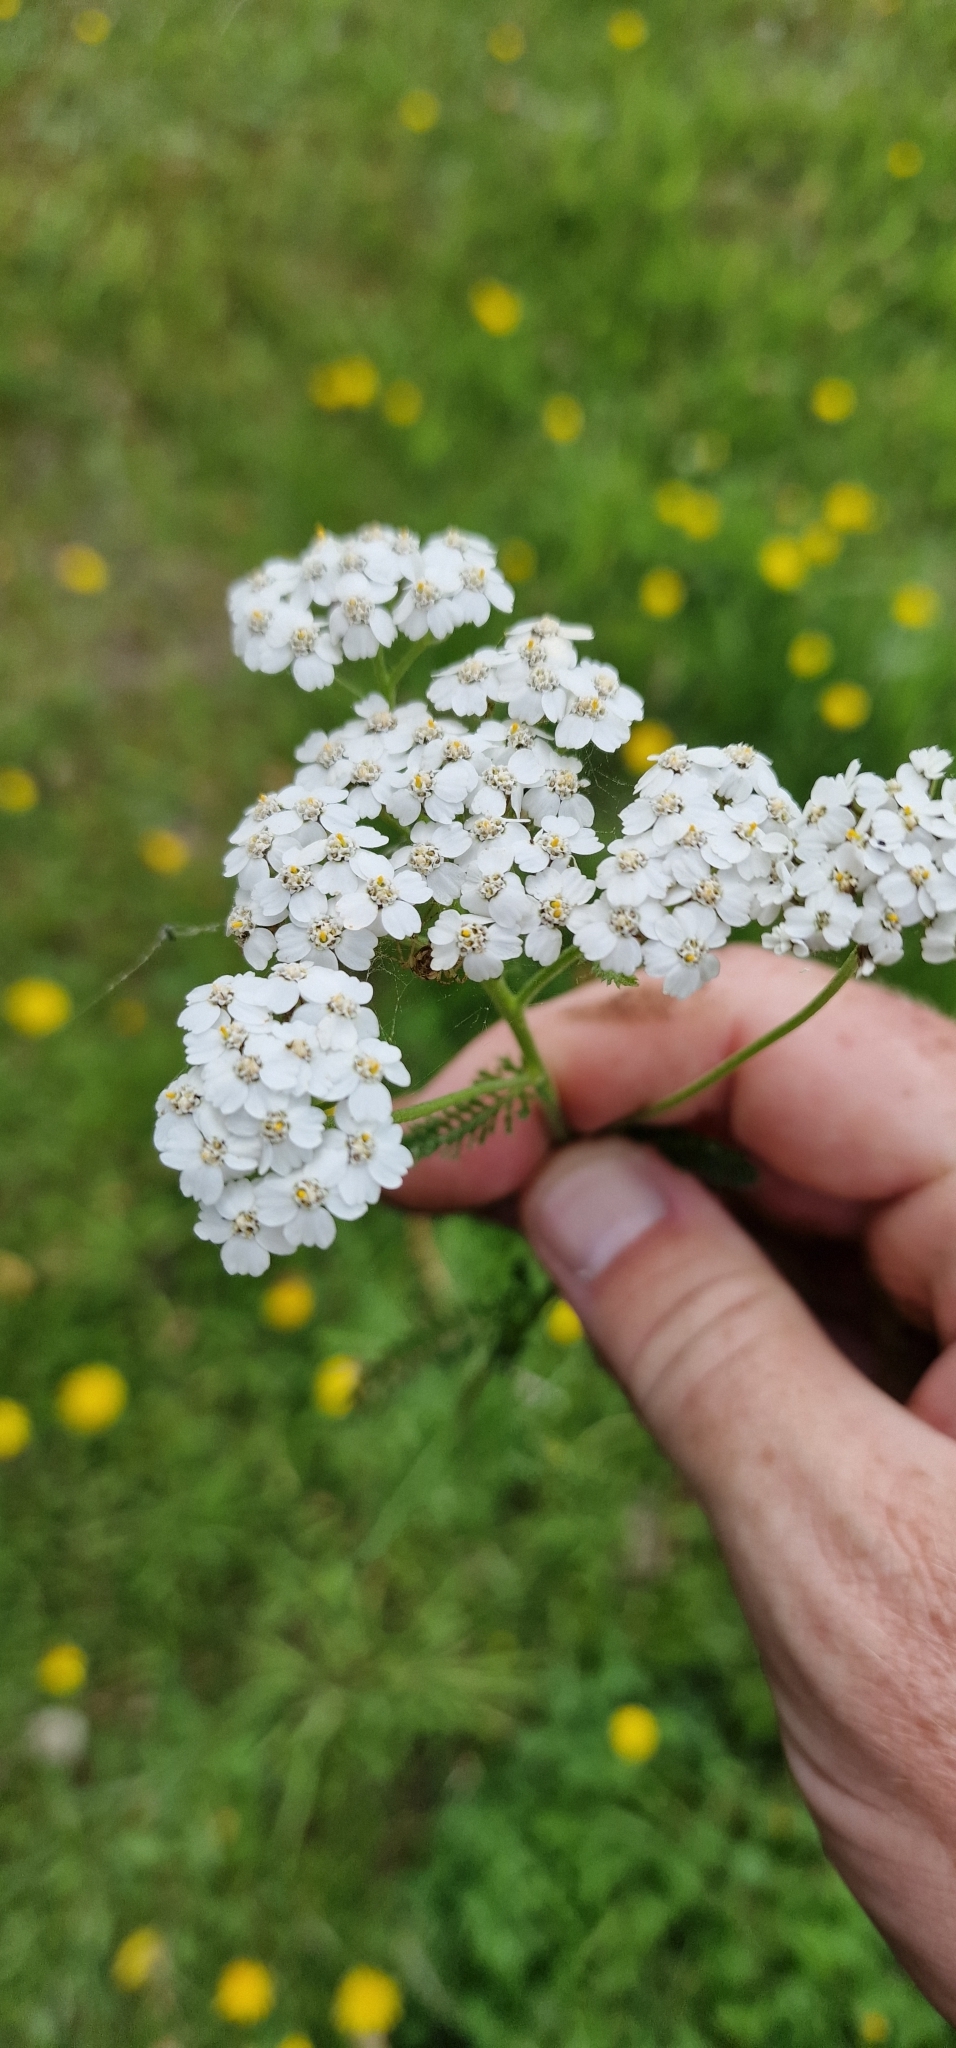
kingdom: Plantae
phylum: Tracheophyta
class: Magnoliopsida
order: Asterales
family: Asteraceae
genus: Achillea
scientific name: Achillea millefolium
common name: Yarrow
